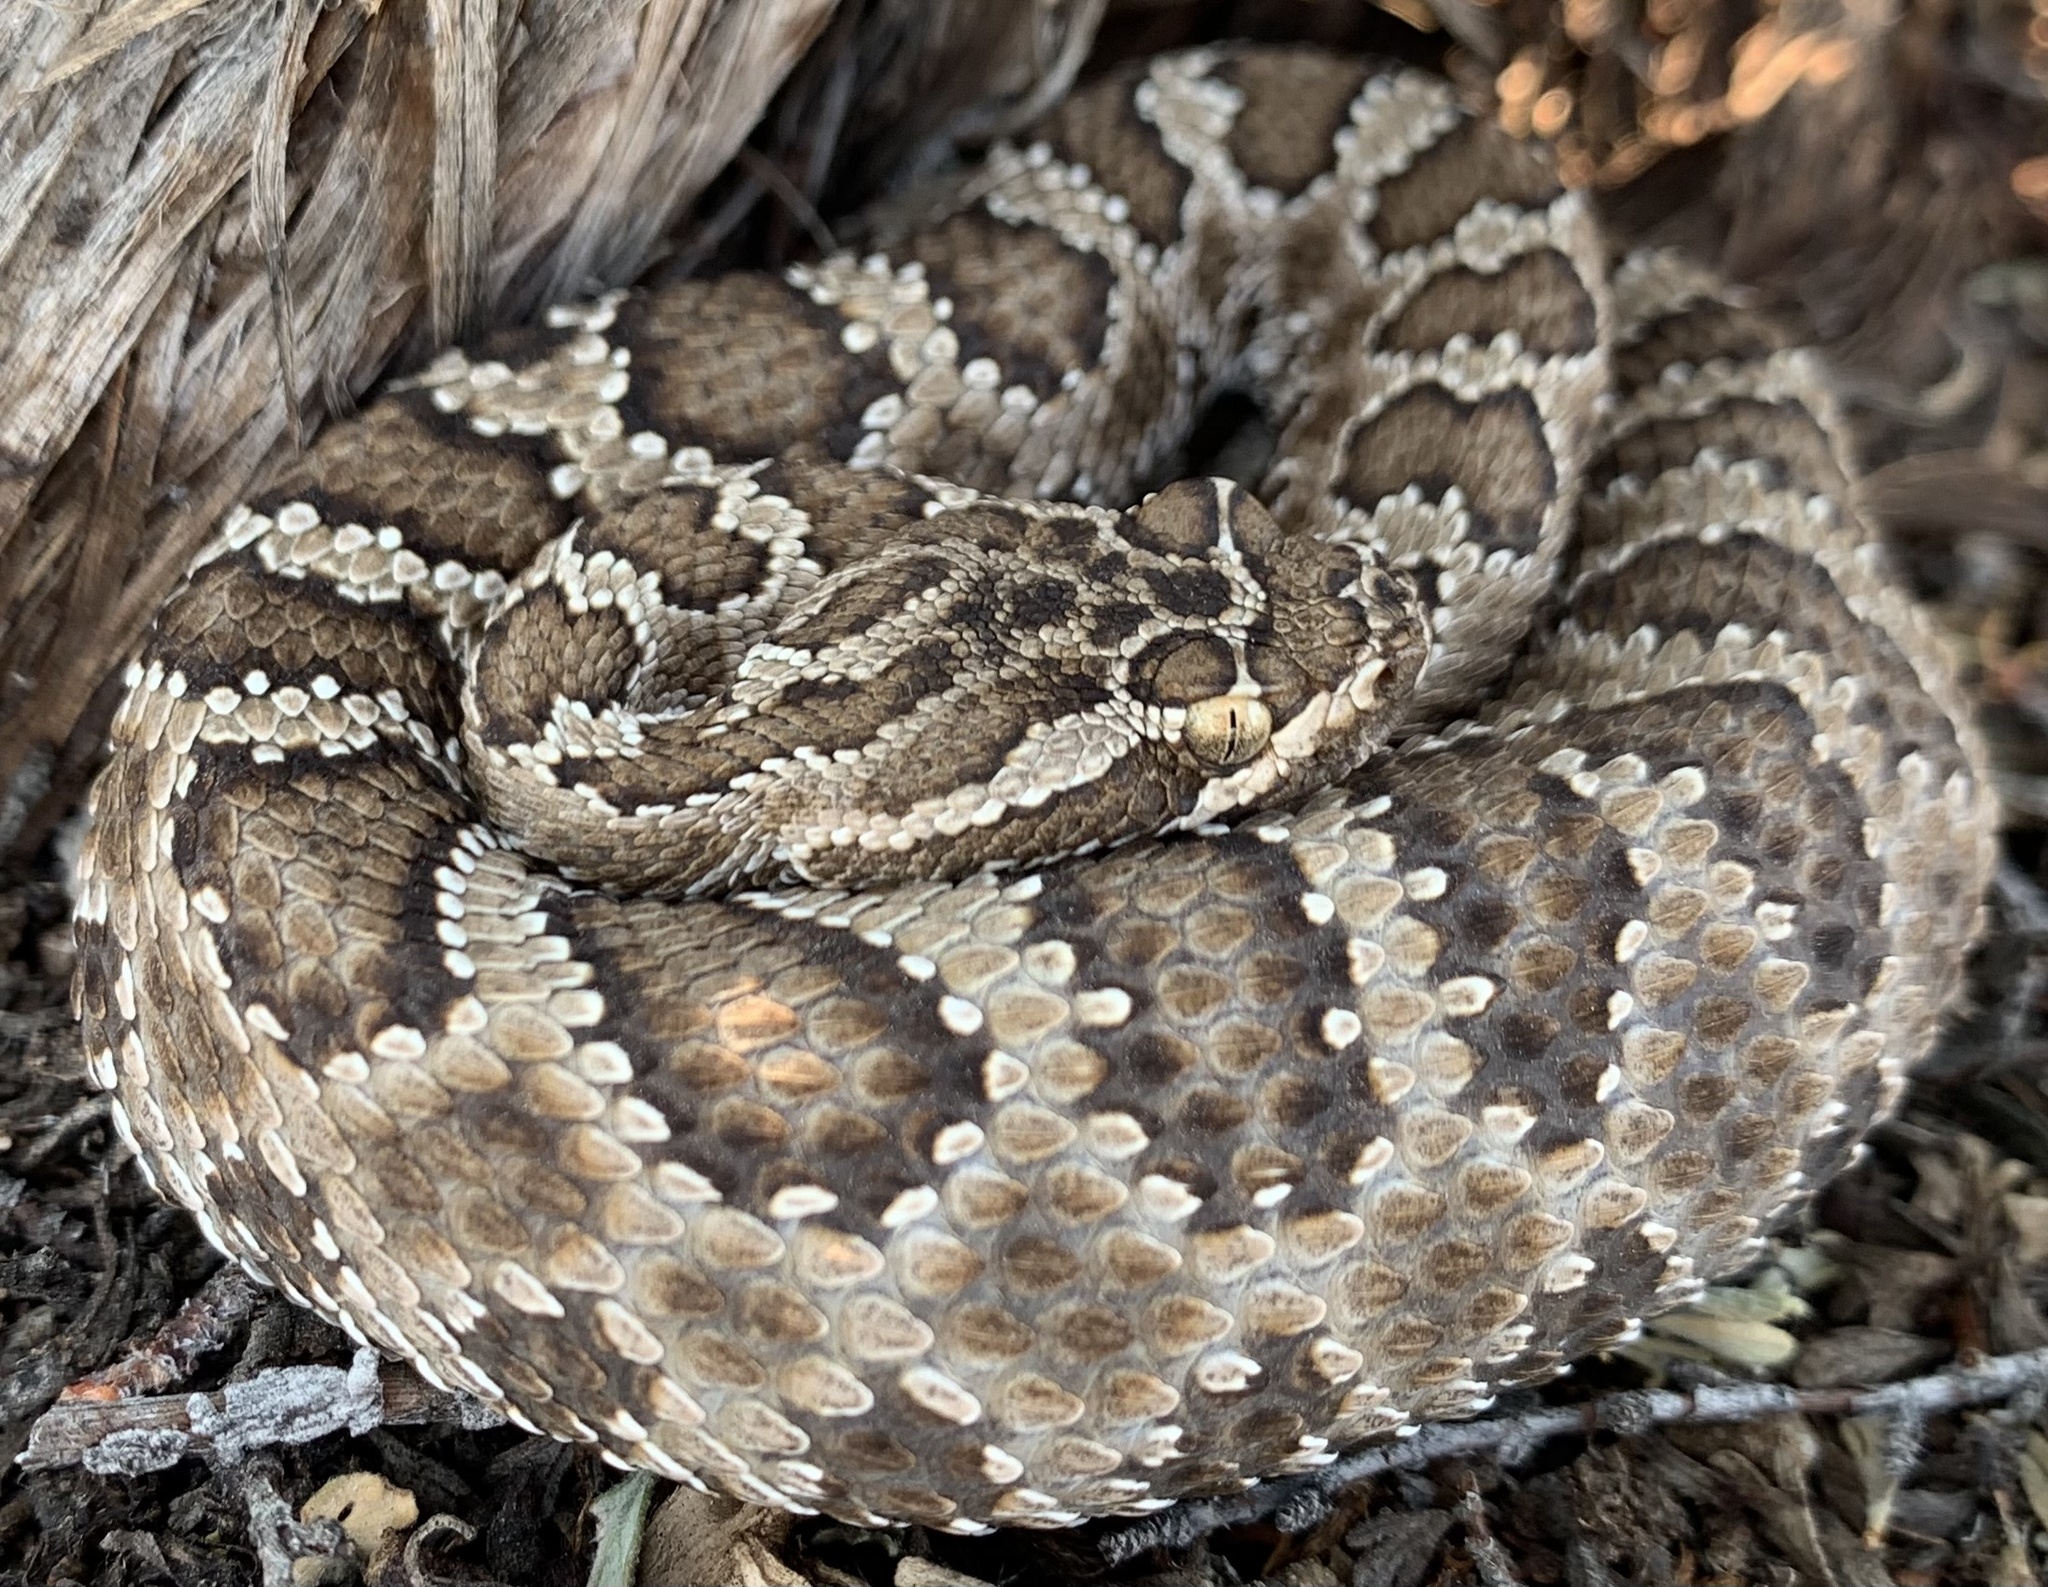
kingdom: Animalia
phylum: Chordata
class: Squamata
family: Viperidae
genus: Crotalus
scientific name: Crotalus oreganus
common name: Abyssus
